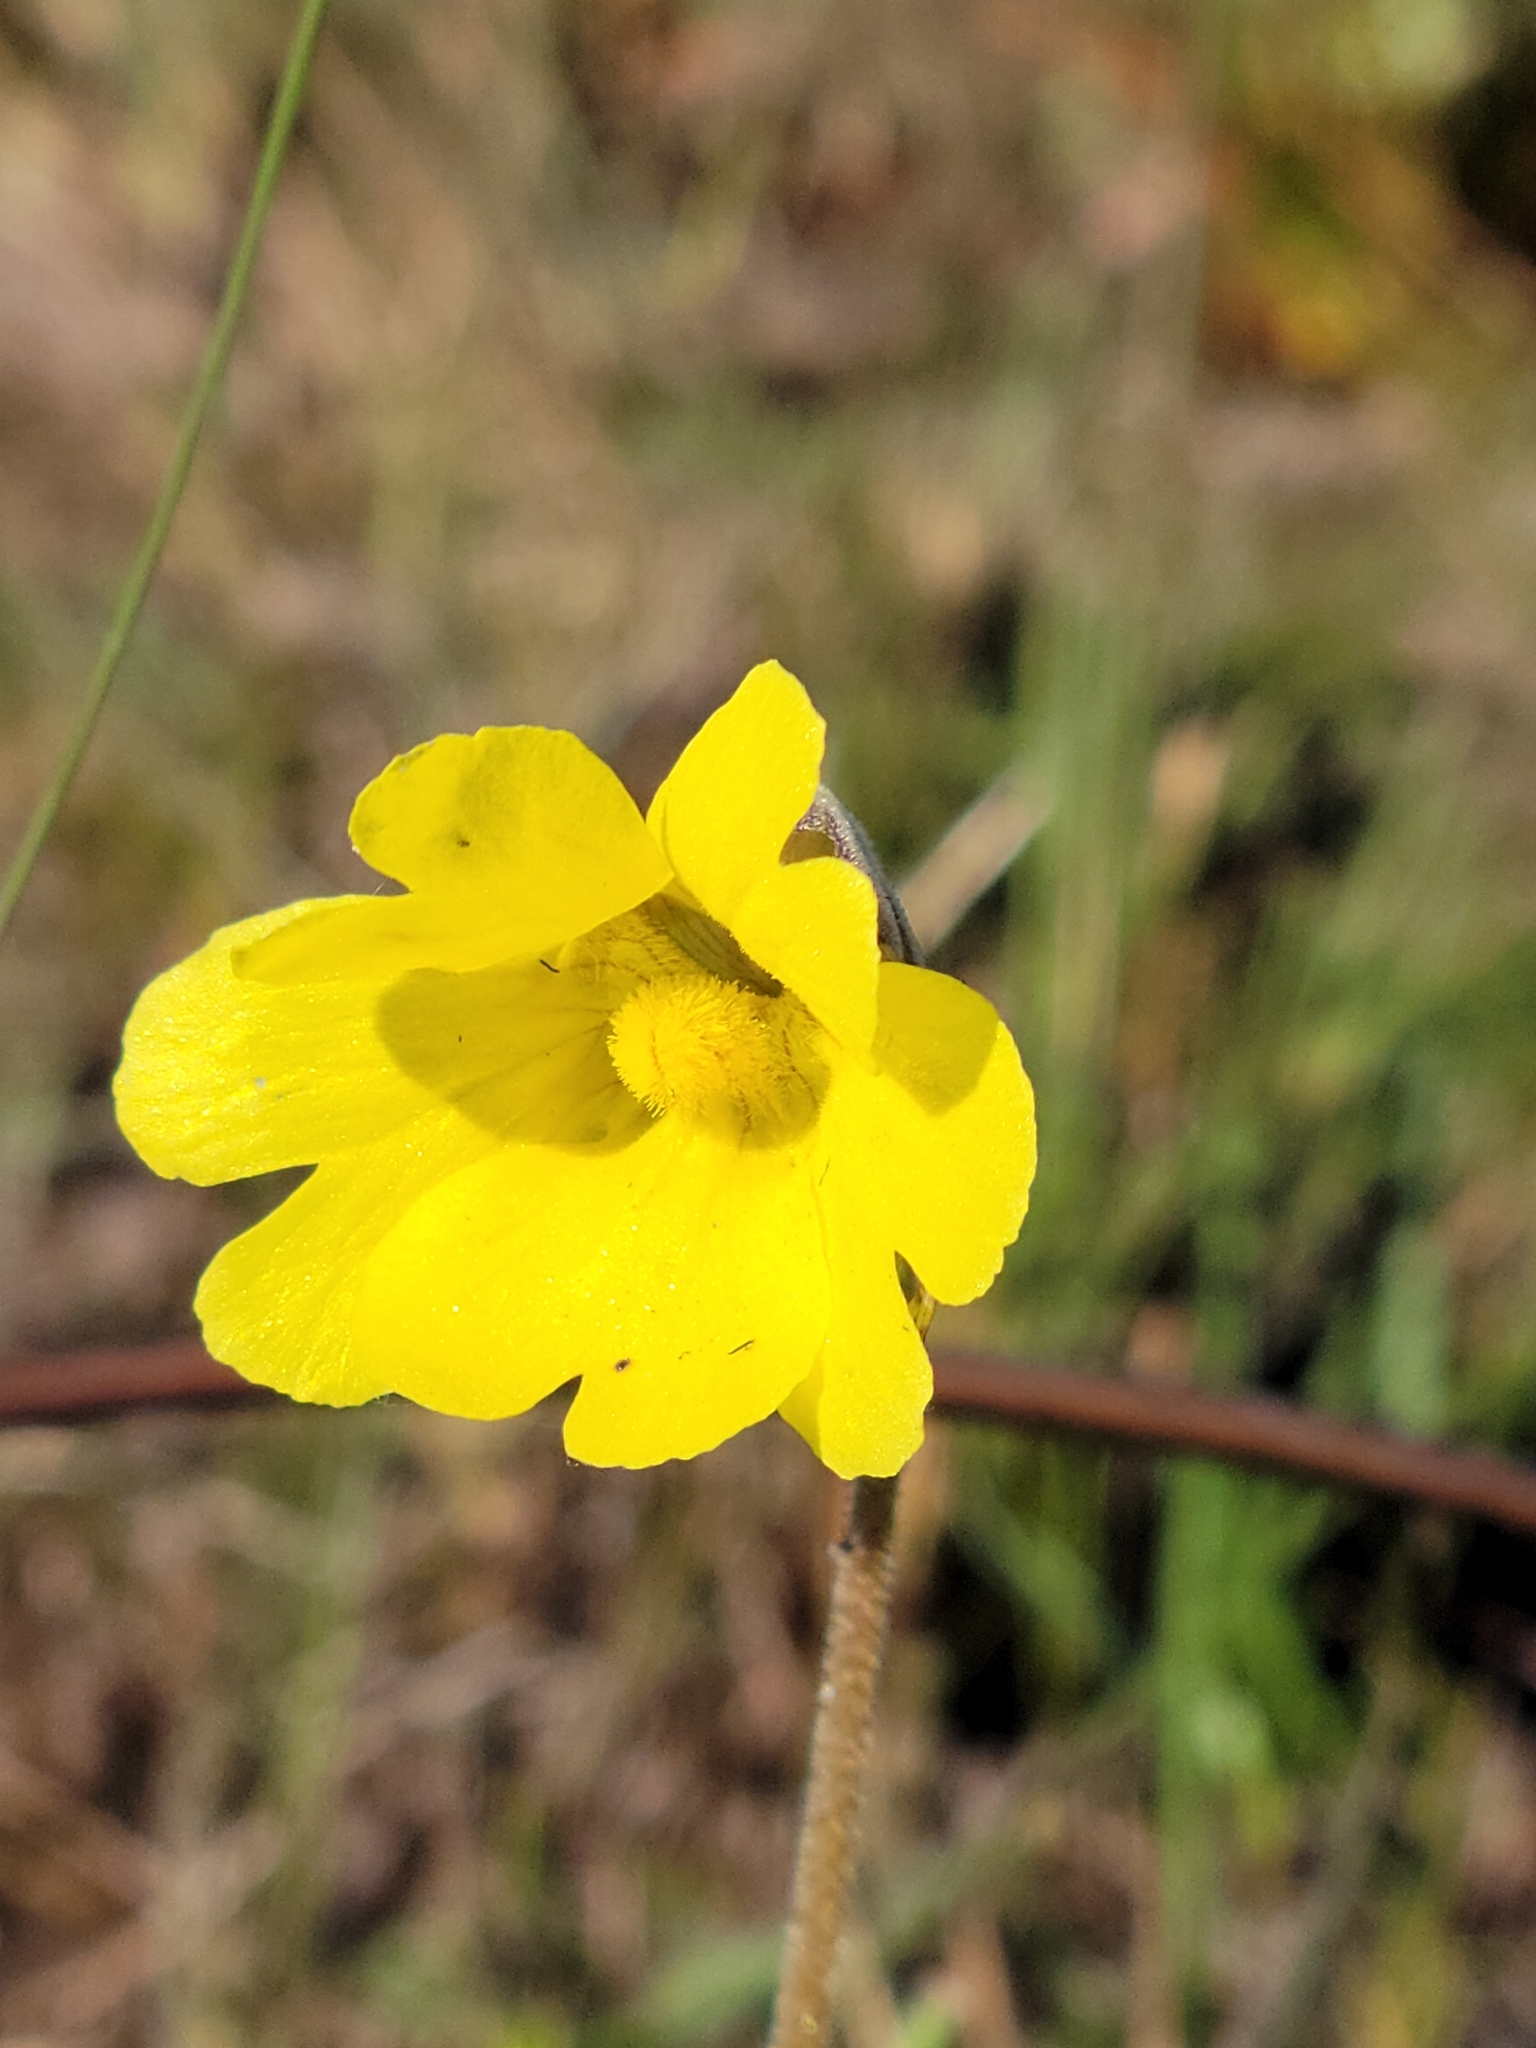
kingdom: Plantae
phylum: Tracheophyta
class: Magnoliopsida
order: Lamiales
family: Lentibulariaceae
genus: Pinguicula
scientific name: Pinguicula lutea
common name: Yellow butterwort
